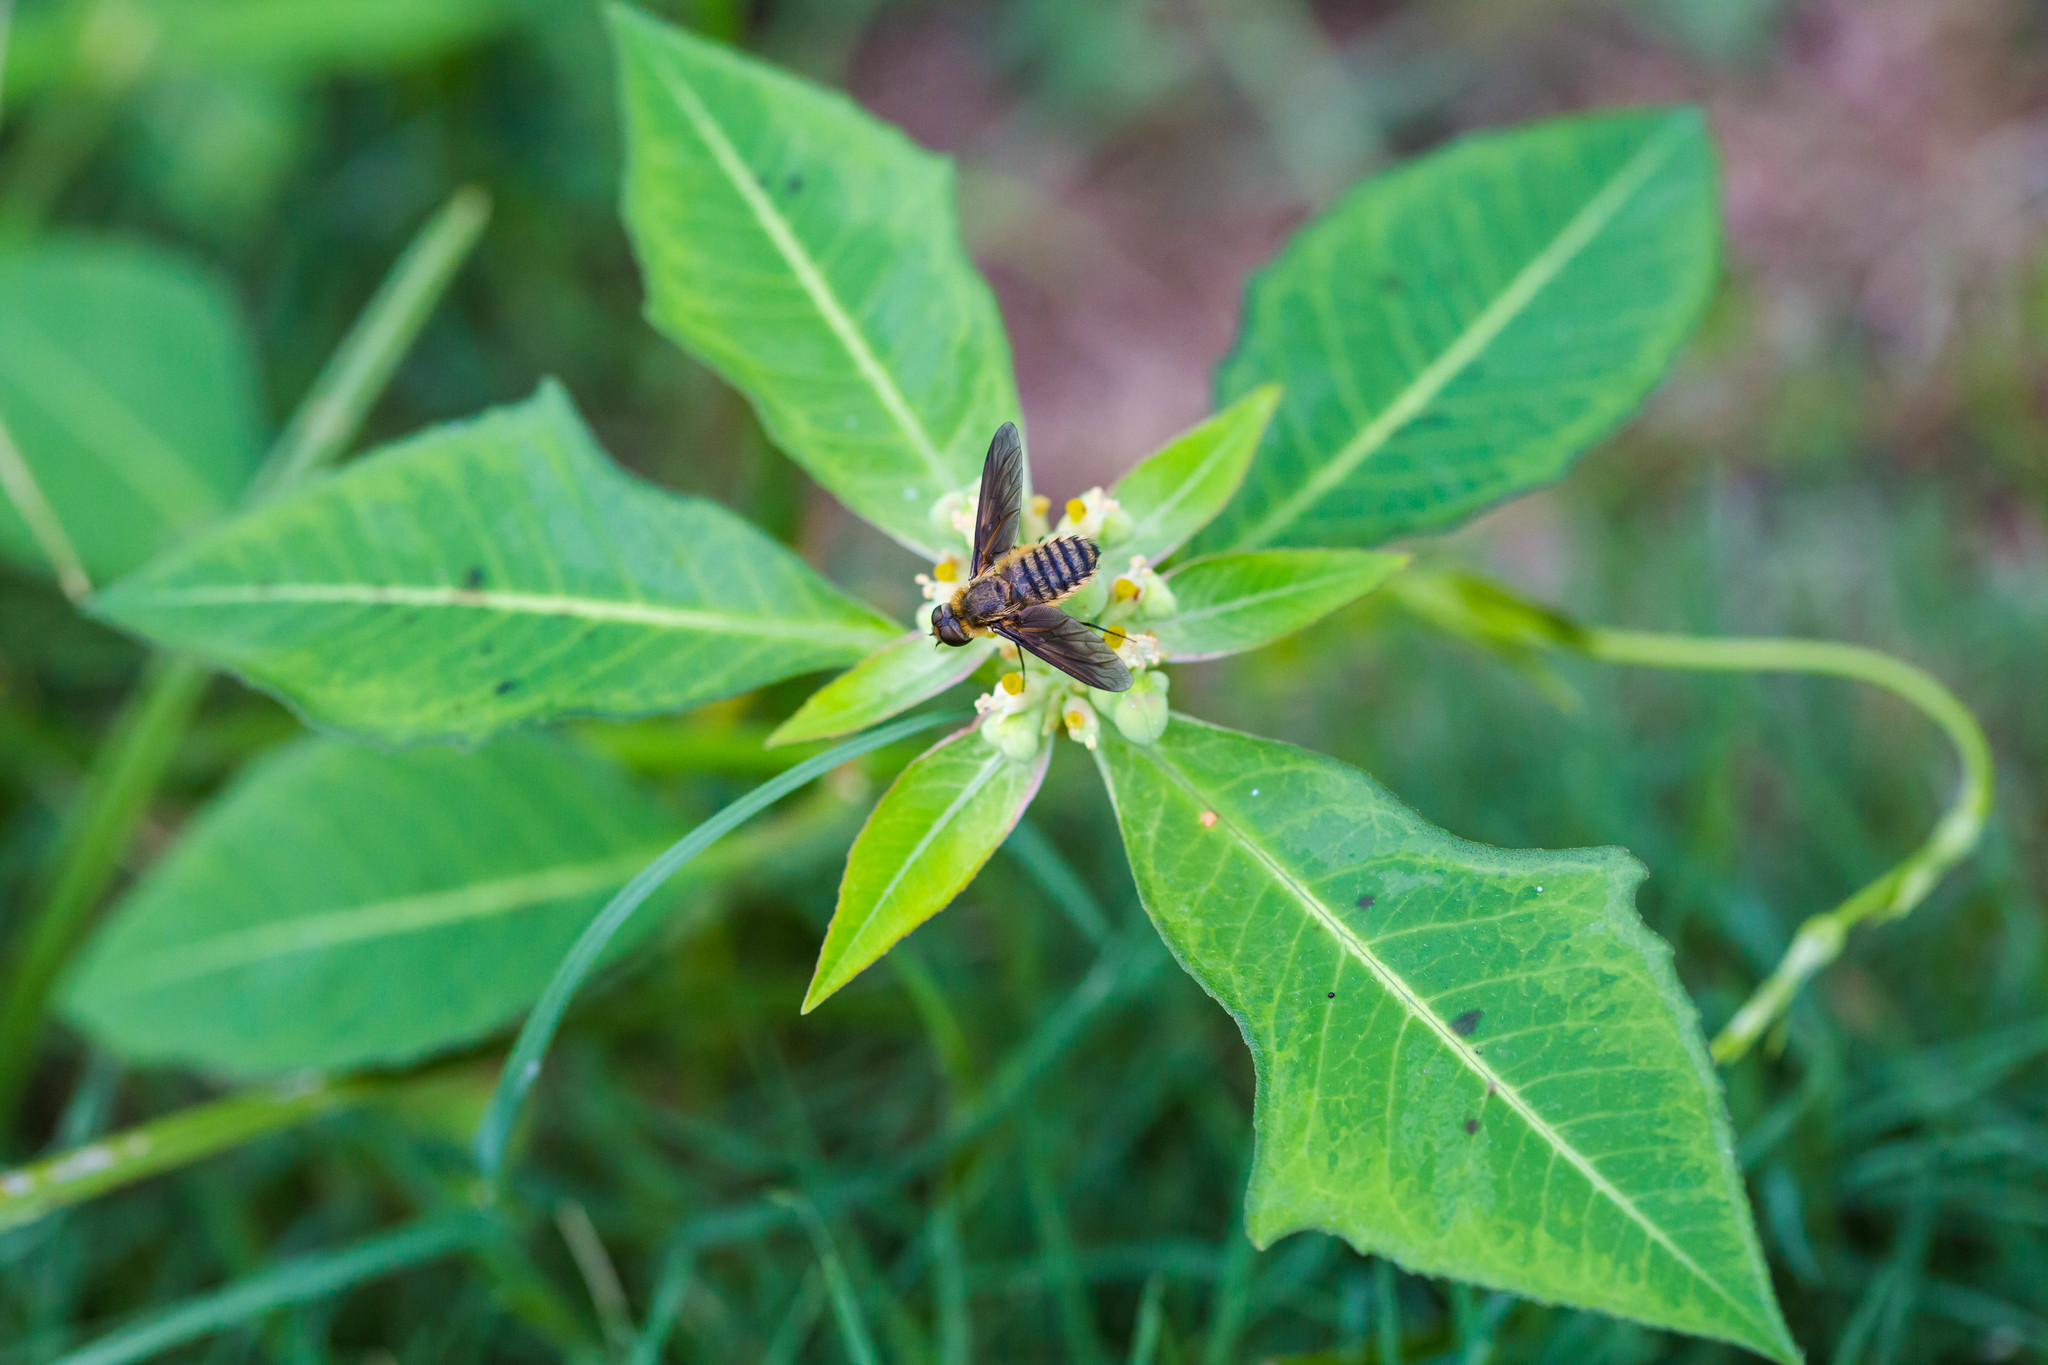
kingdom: Animalia
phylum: Arthropoda
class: Insecta
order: Diptera
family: Bombyliidae
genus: Poecilanthrax
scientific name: Poecilanthrax lucifer
